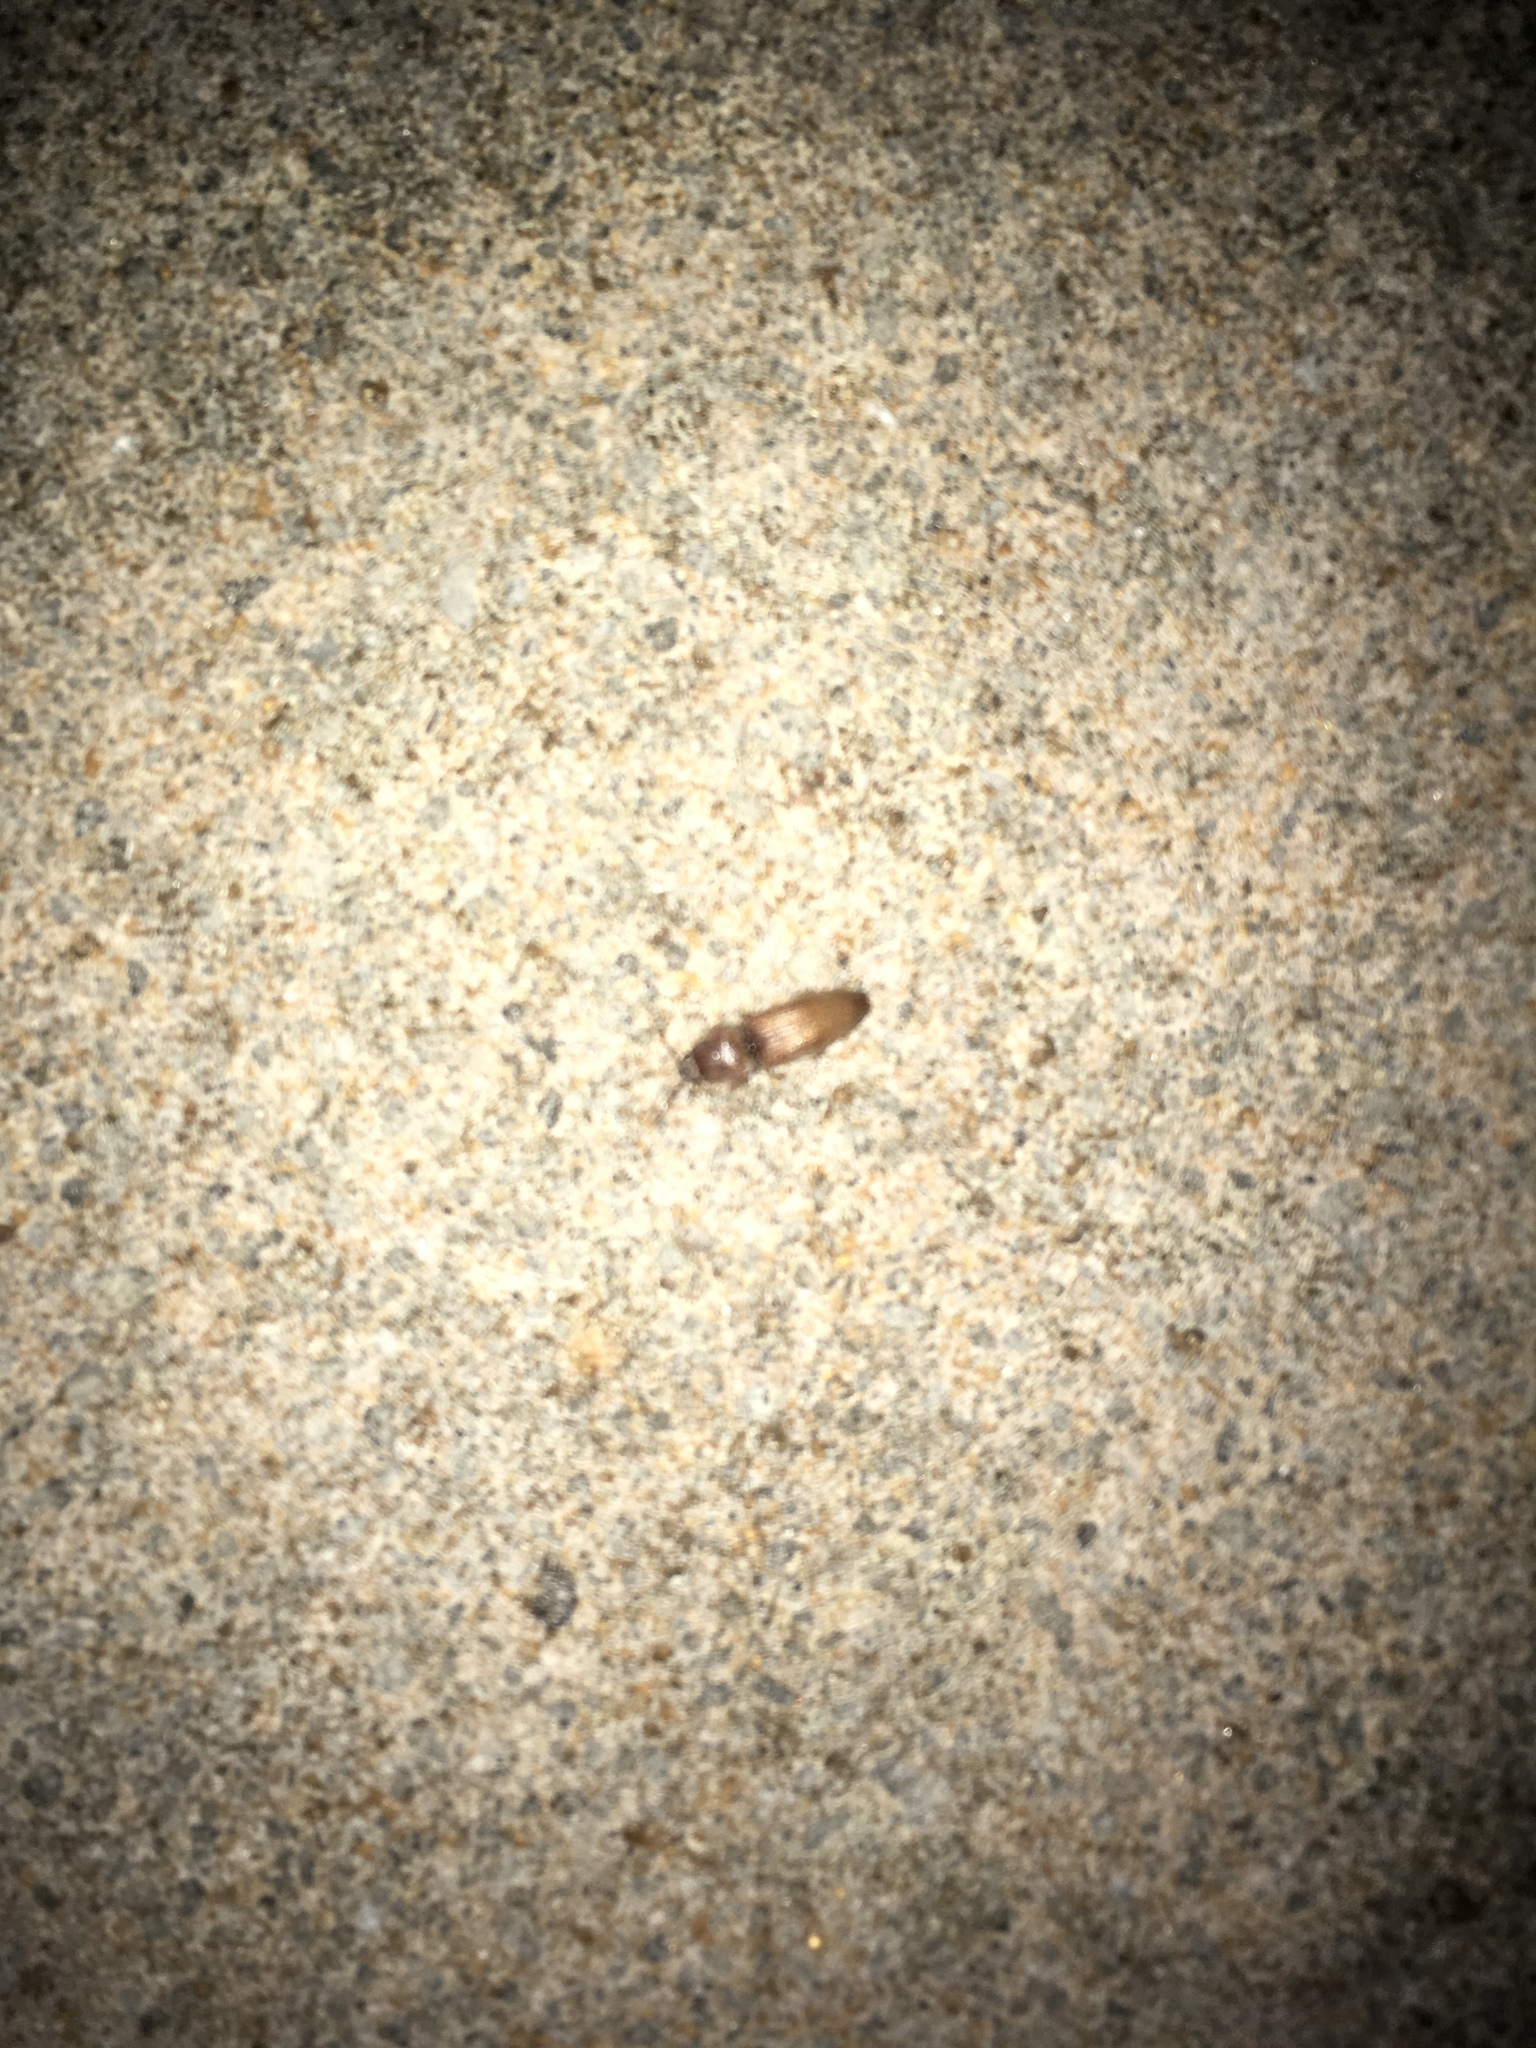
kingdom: Animalia
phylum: Arthropoda
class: Insecta
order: Coleoptera
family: Elateridae
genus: Monocrepidius
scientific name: Monocrepidius scissus
